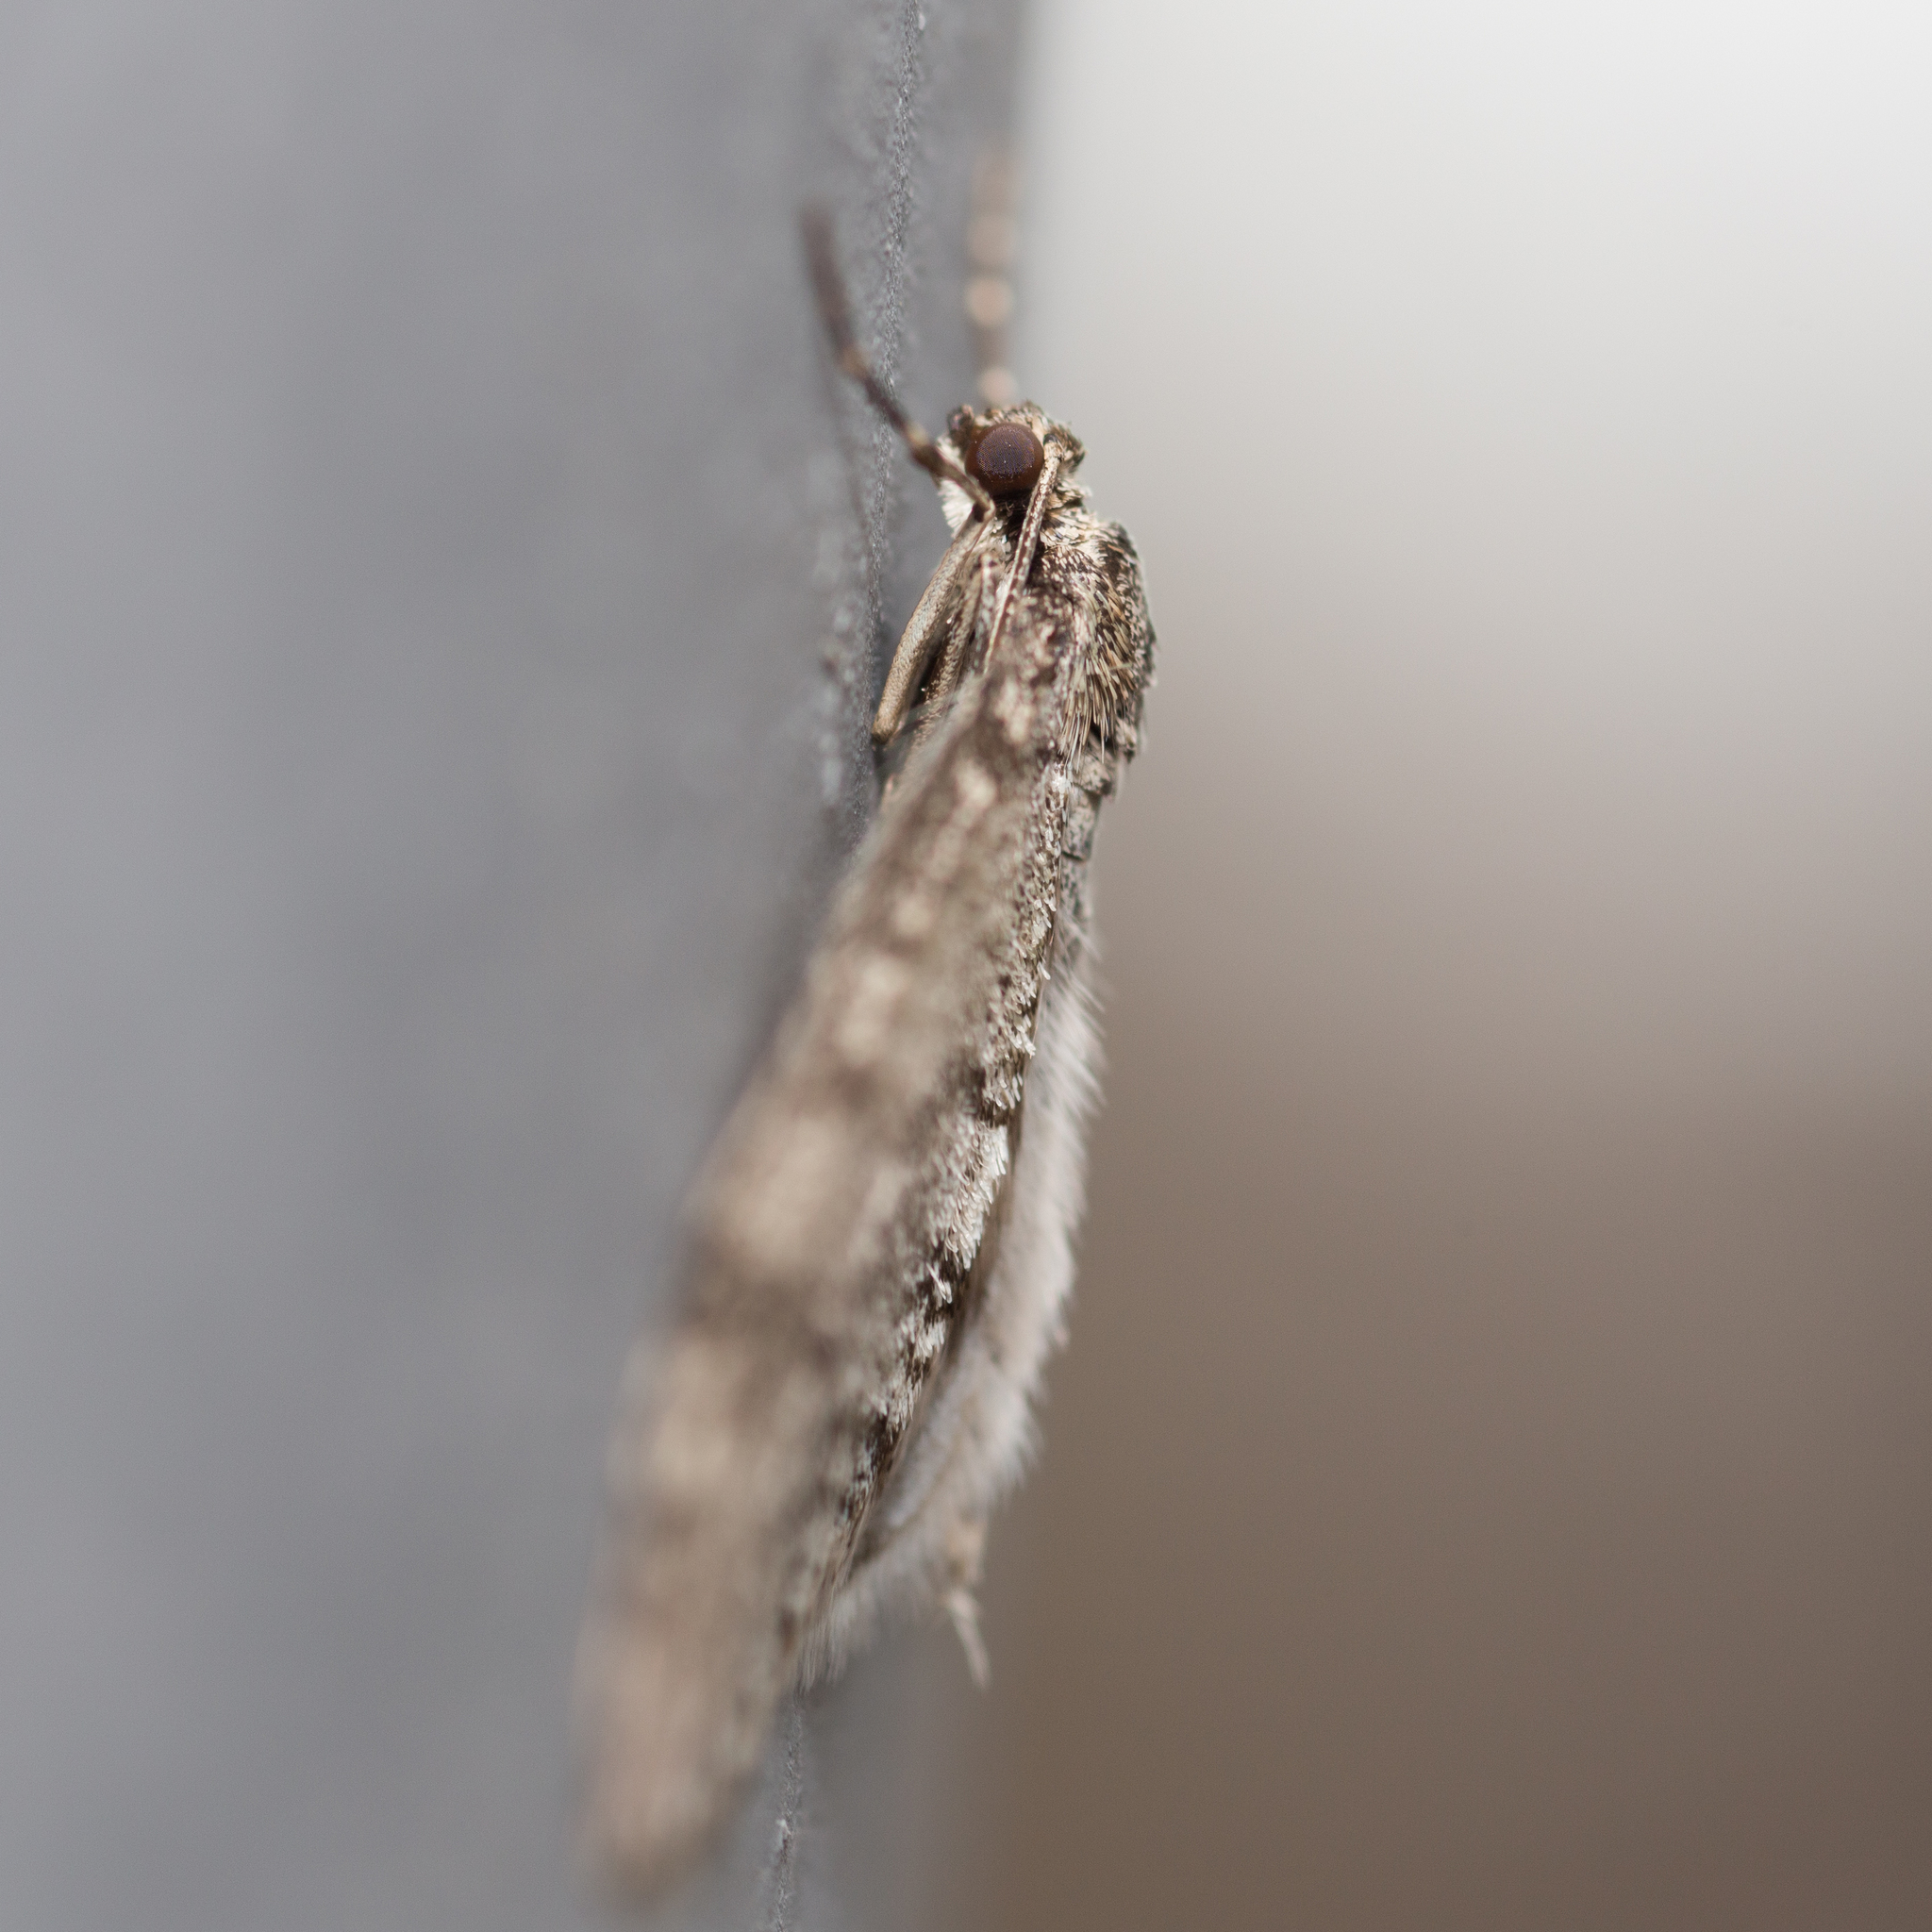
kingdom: Animalia
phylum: Arthropoda
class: Insecta
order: Lepidoptera
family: Geometridae
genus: Trichopteryx
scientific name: Trichopteryx carpinata
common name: Early tooth-striped
